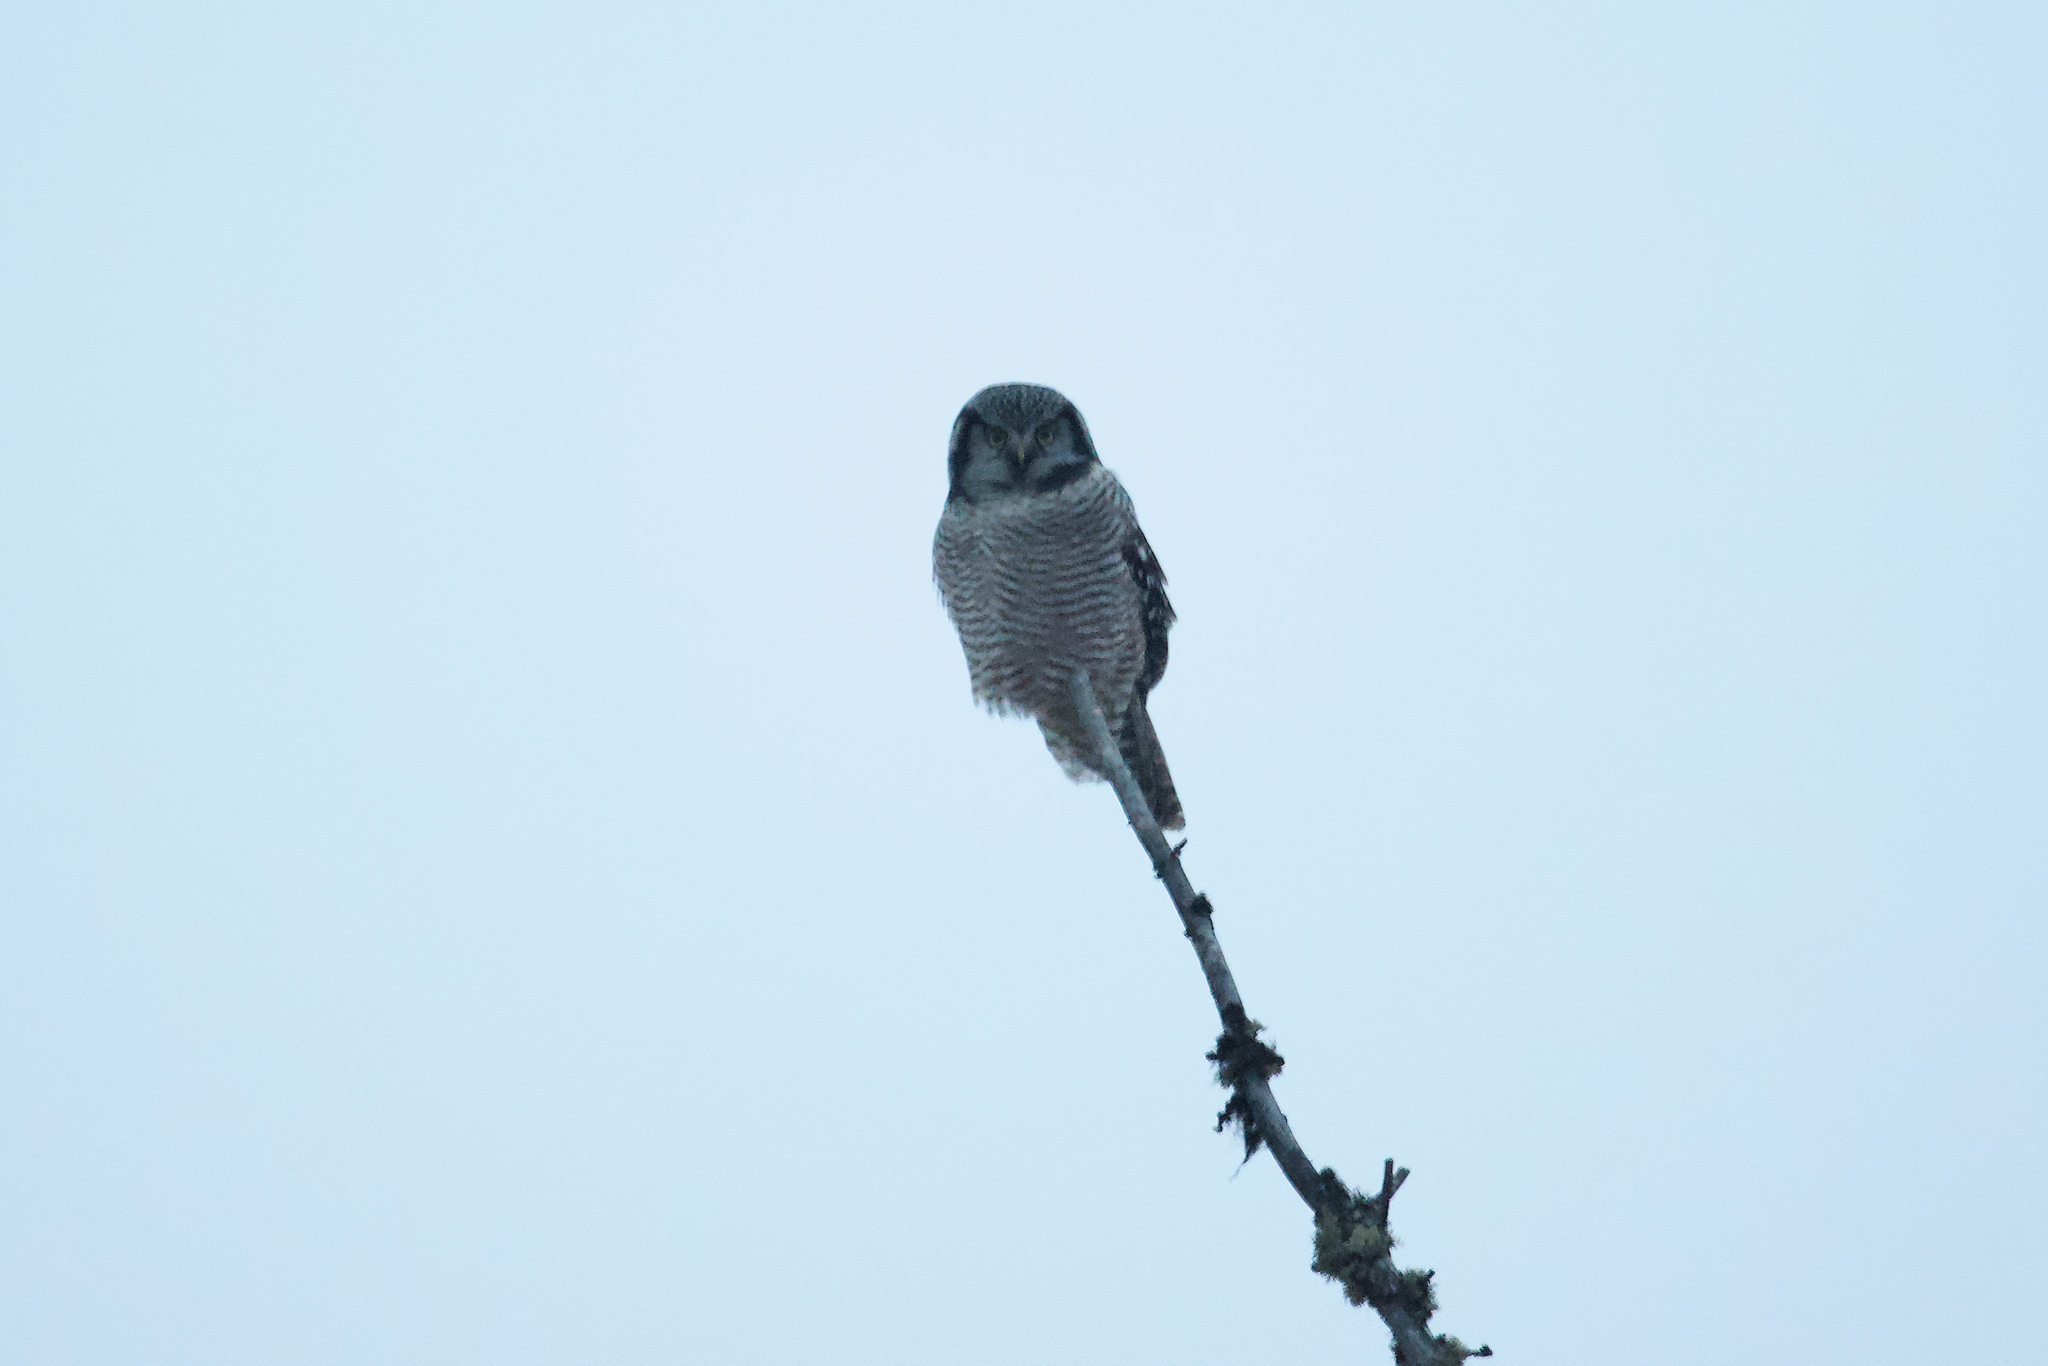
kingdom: Animalia
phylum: Chordata
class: Aves
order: Strigiformes
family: Strigidae
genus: Surnia
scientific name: Surnia ulula
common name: Northern hawk-owl
